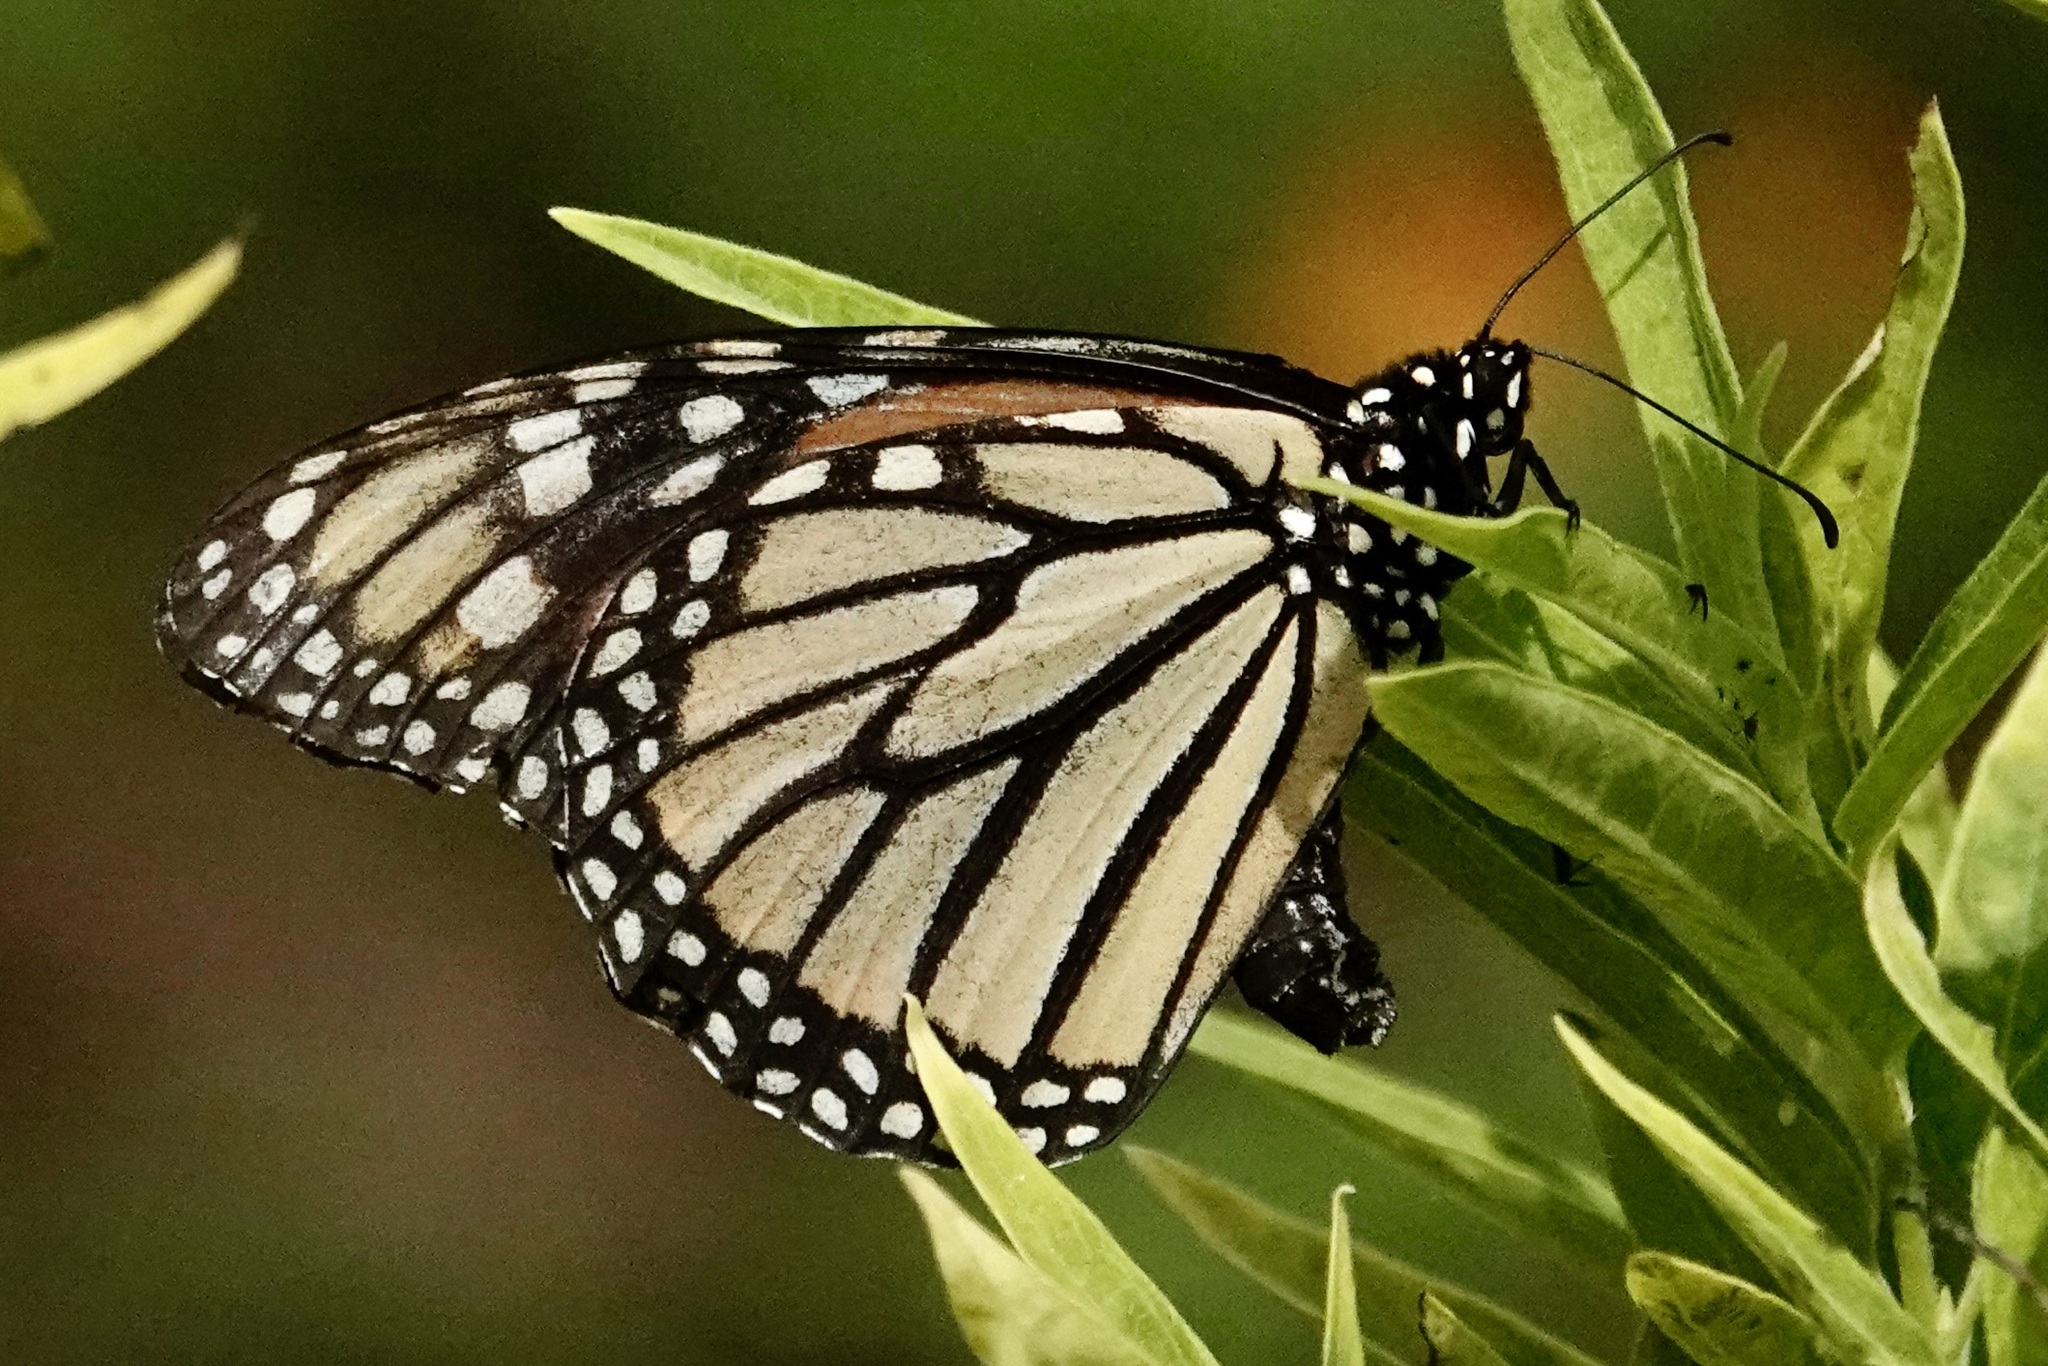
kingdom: Animalia
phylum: Arthropoda
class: Insecta
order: Lepidoptera
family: Nymphalidae
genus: Danaus
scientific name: Danaus plexippus
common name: Monarch
